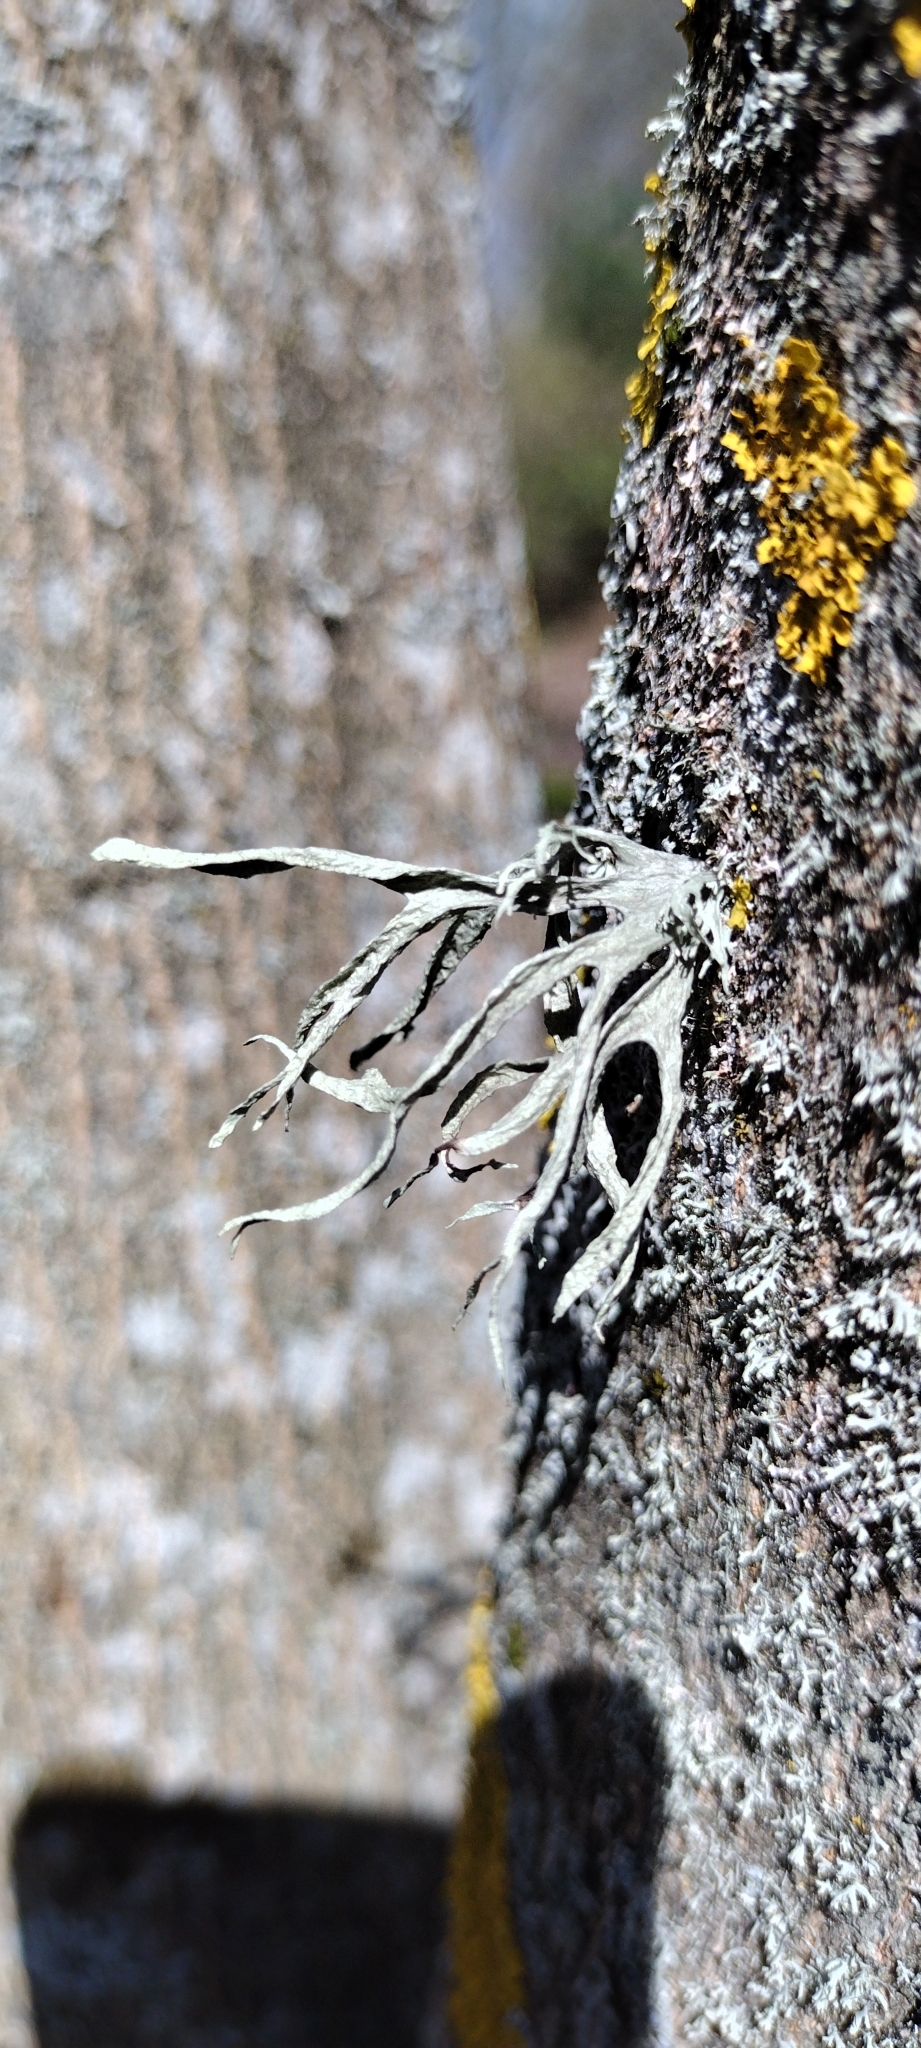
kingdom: Fungi
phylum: Ascomycota
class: Lecanoromycetes
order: Lecanorales
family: Ramalinaceae
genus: Ramalina
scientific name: Ramalina fraxinea
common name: Cartilage lichen
